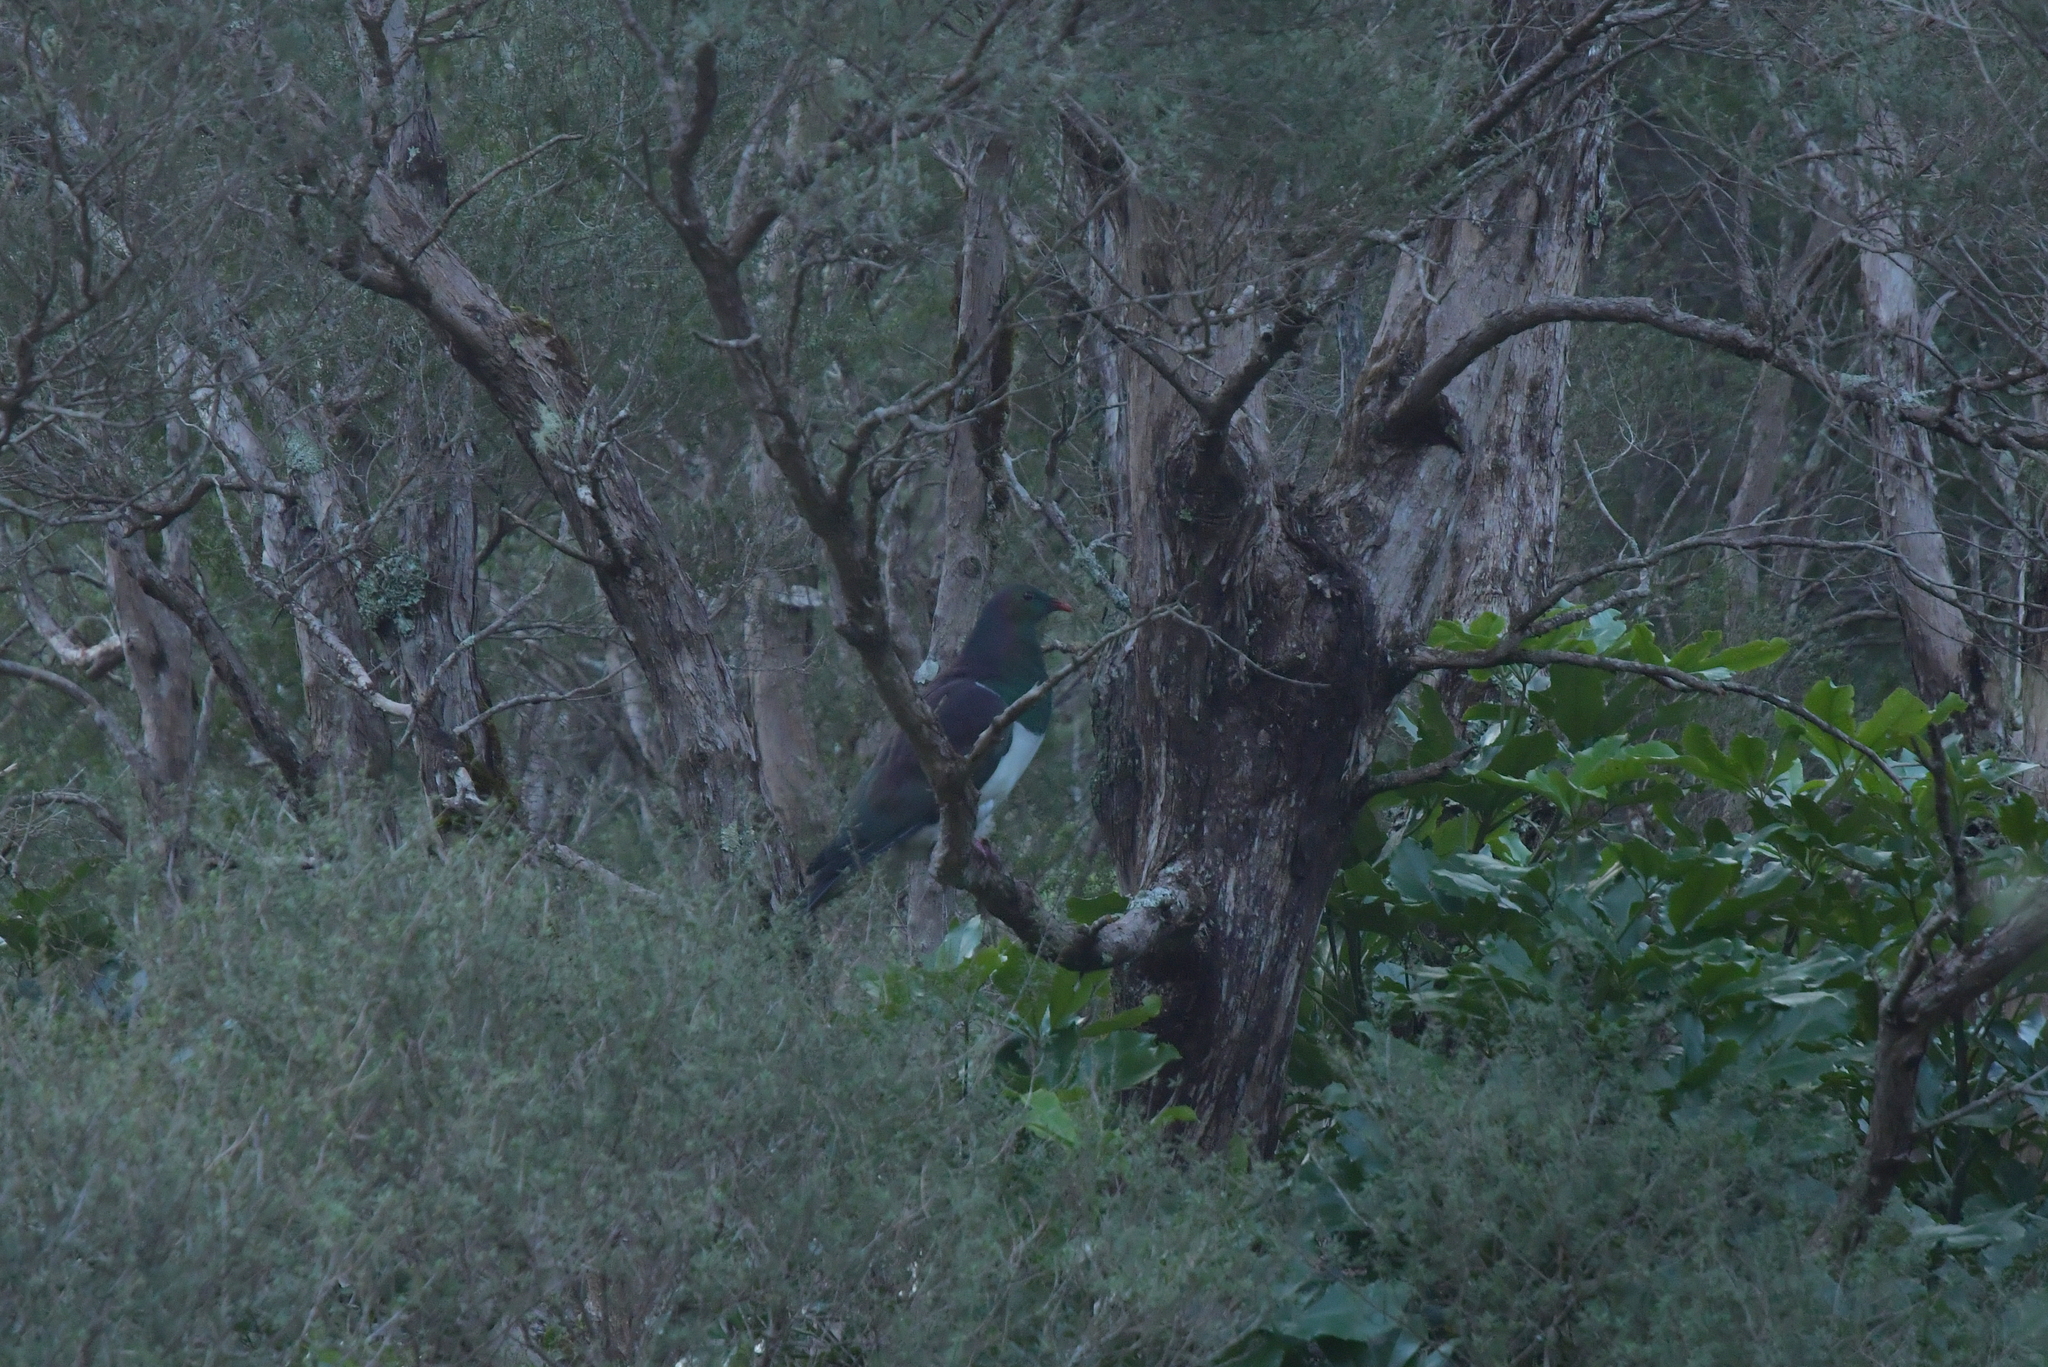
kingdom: Animalia
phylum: Chordata
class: Aves
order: Columbiformes
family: Columbidae
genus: Hemiphaga
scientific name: Hemiphaga novaeseelandiae
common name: New zealand pigeon
